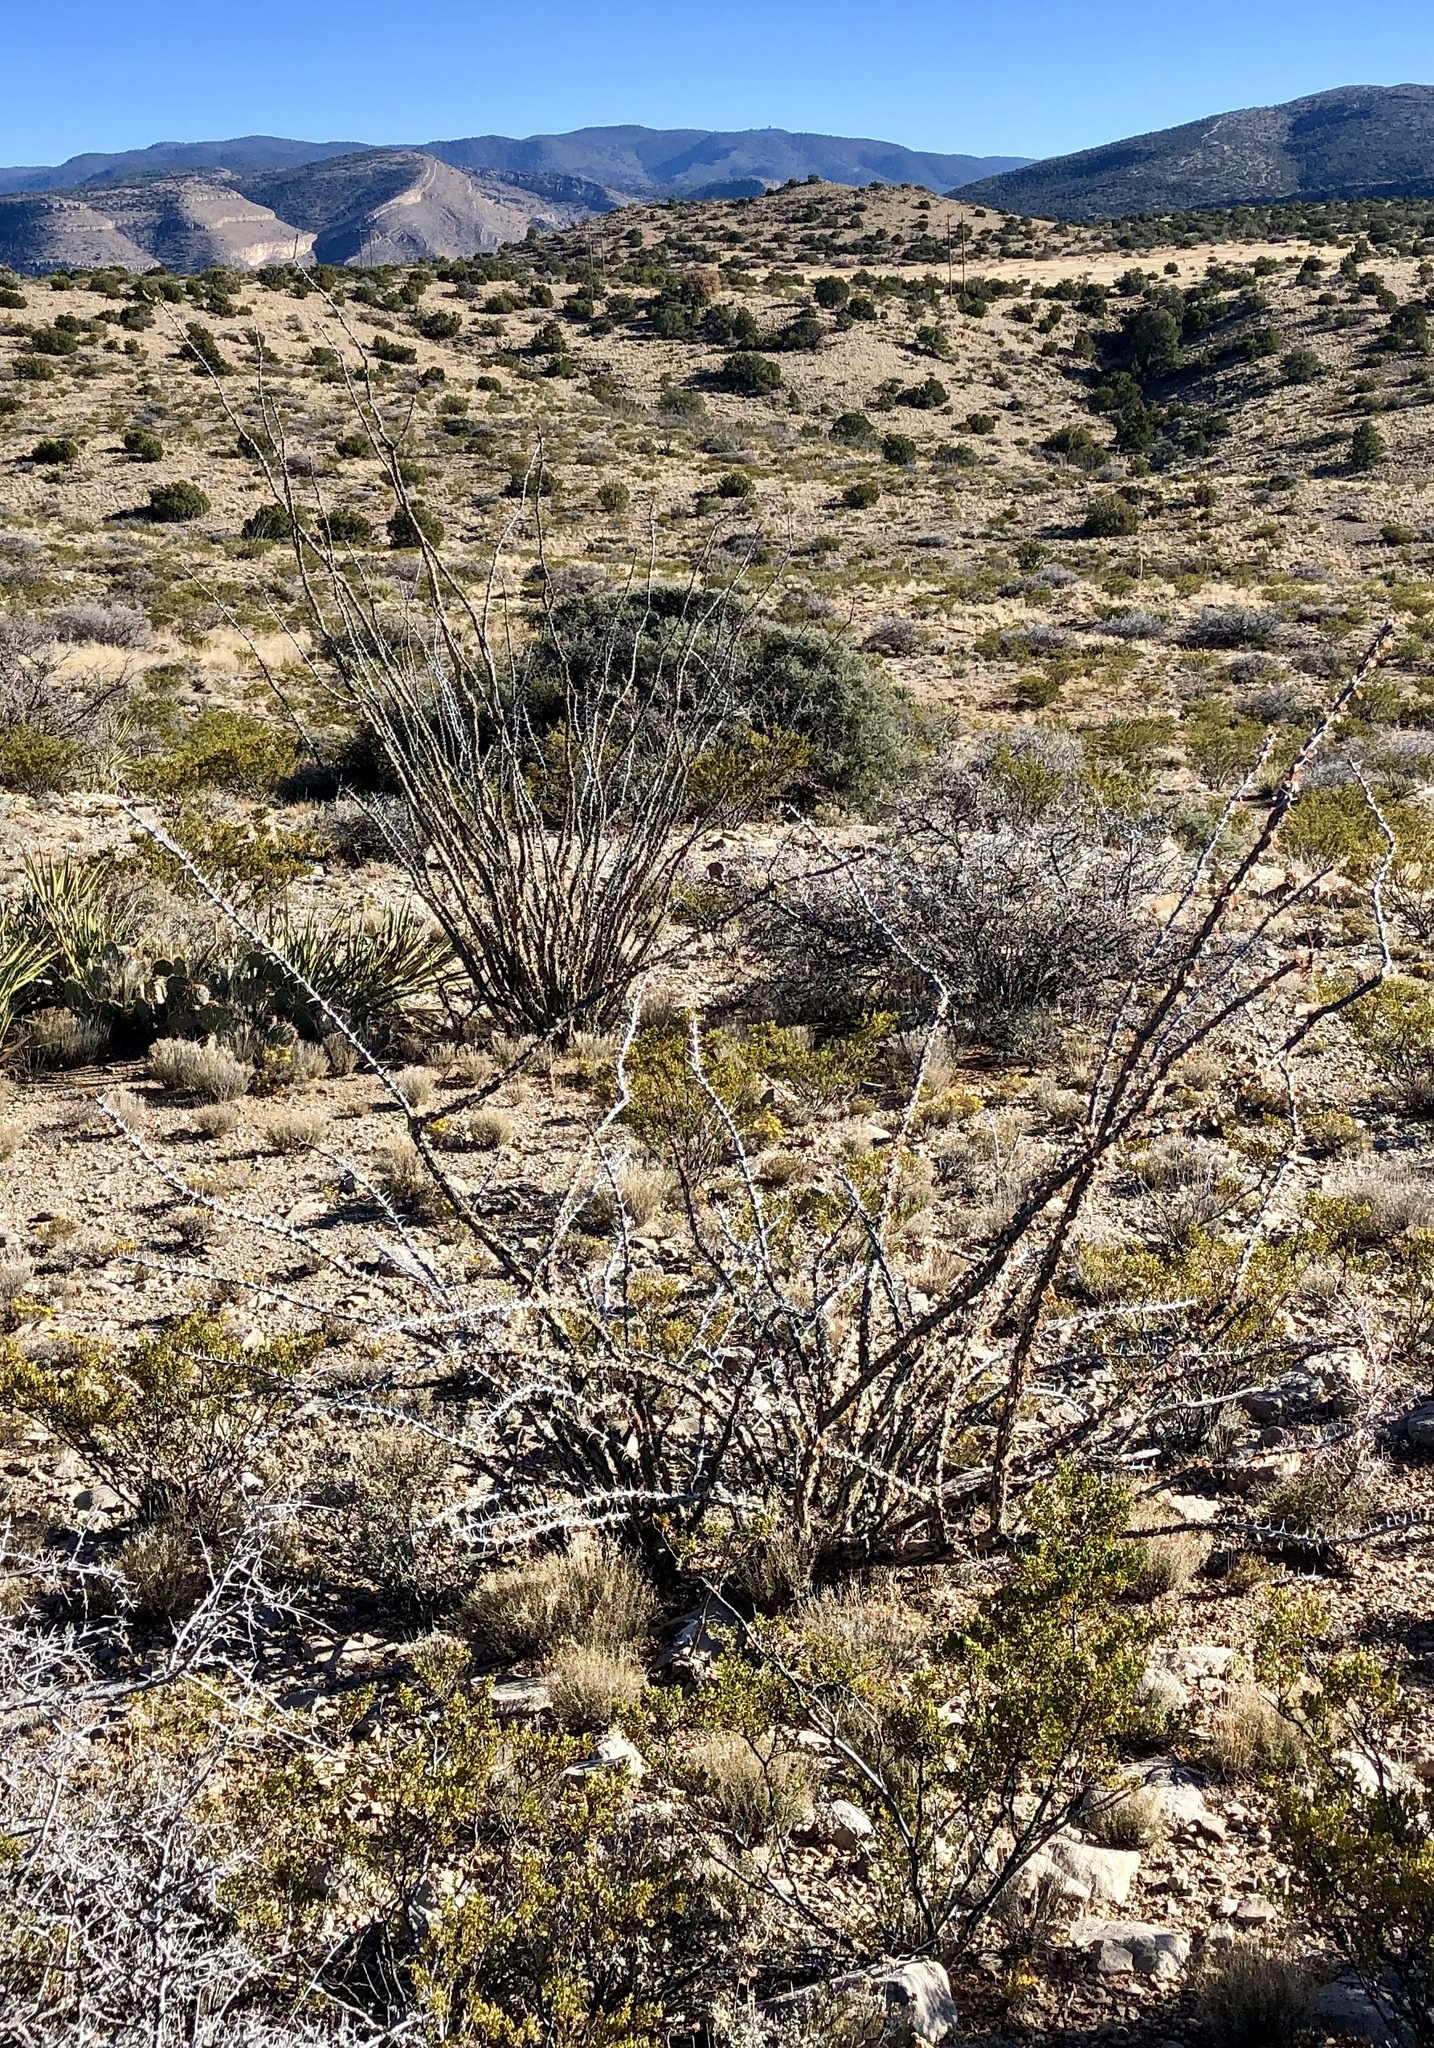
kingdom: Plantae
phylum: Tracheophyta
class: Magnoliopsida
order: Ericales
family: Fouquieriaceae
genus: Fouquieria
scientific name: Fouquieria splendens
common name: Vine-cactus
